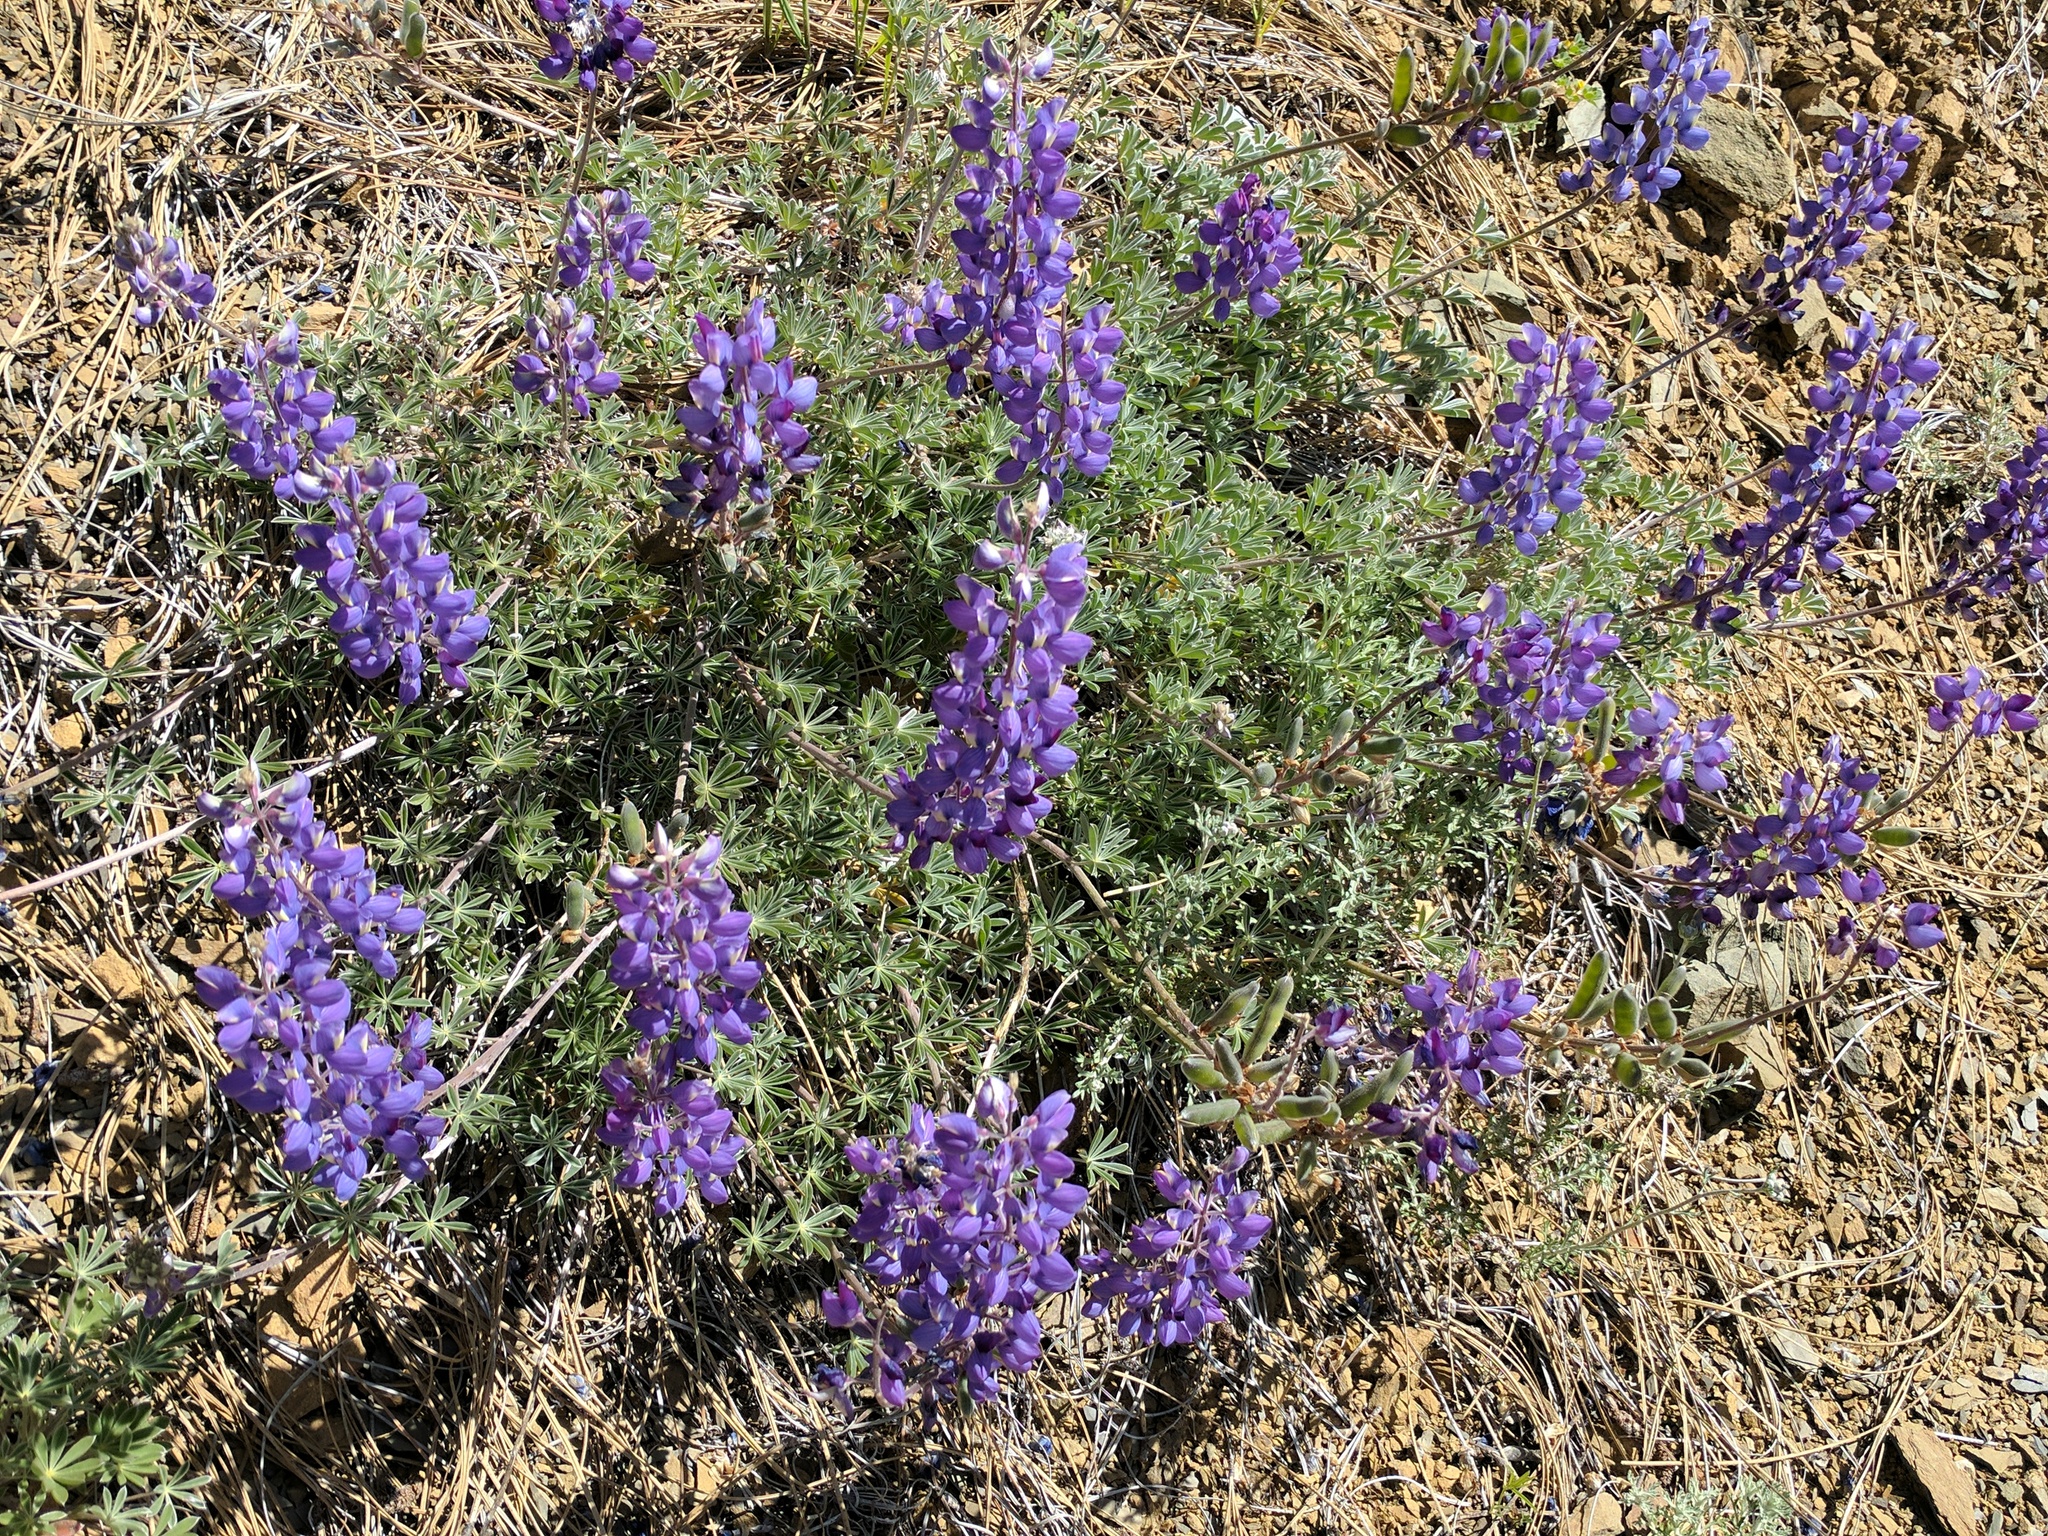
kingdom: Plantae
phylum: Tracheophyta
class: Magnoliopsida
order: Fabales
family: Fabaceae
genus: Lupinus
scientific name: Lupinus albifrons
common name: Foothill lupine
